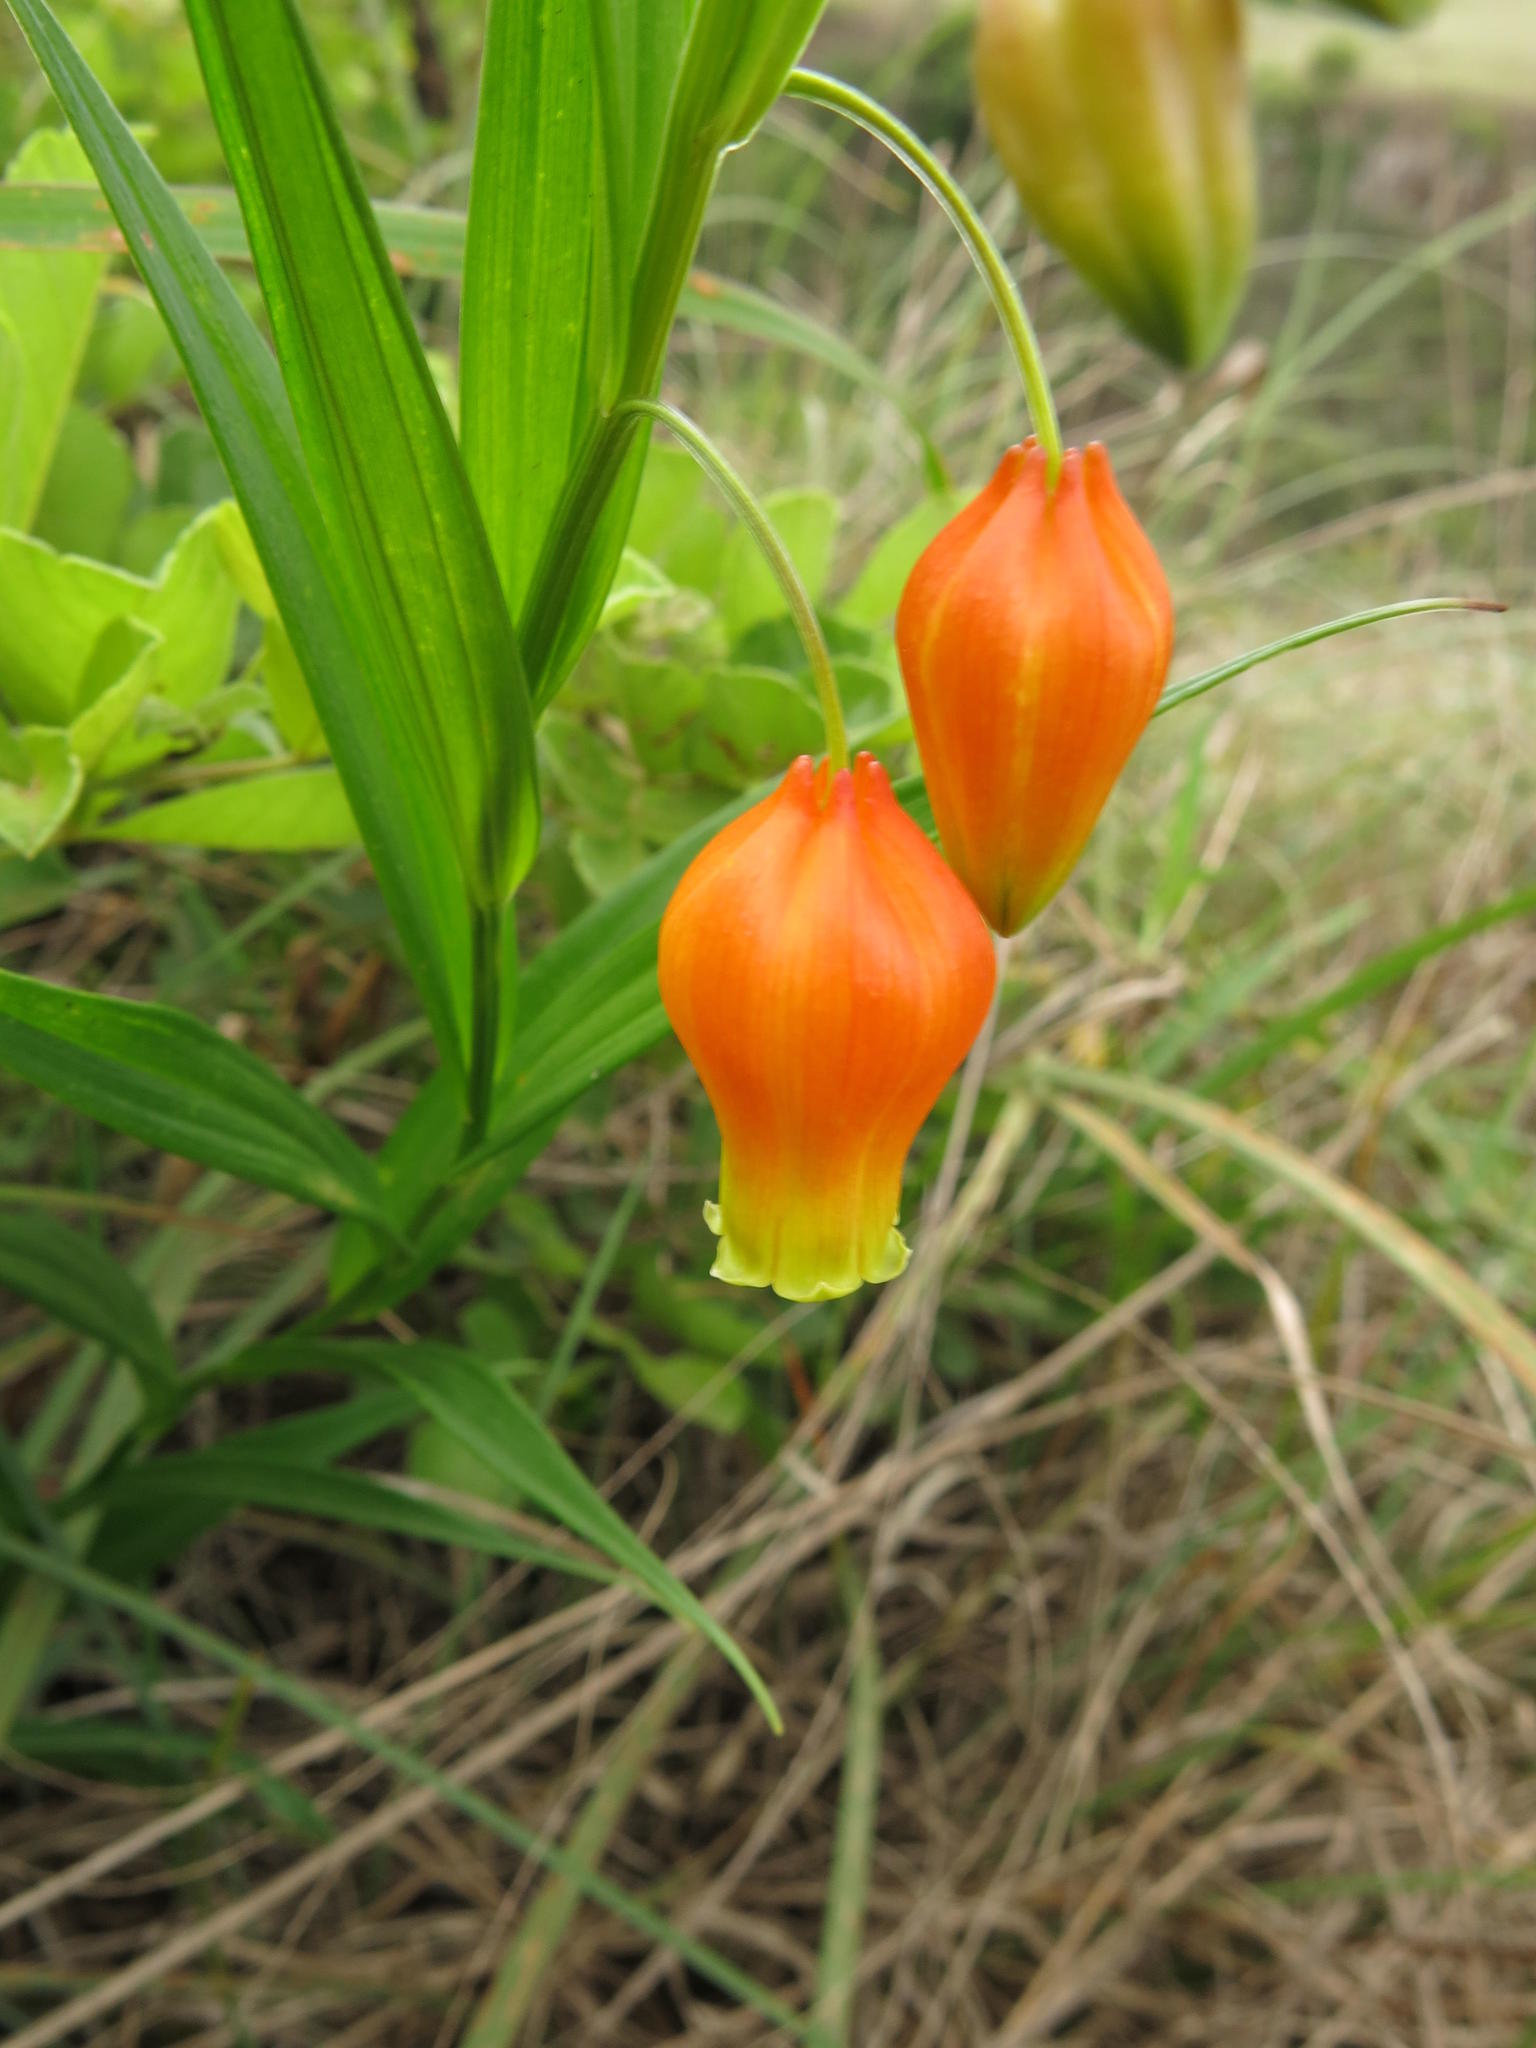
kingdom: Plantae
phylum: Tracheophyta
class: Liliopsida
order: Liliales
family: Colchicaceae
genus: Sandersonia
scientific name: Sandersonia aurantiaca
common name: Chinese-lantern-lily
